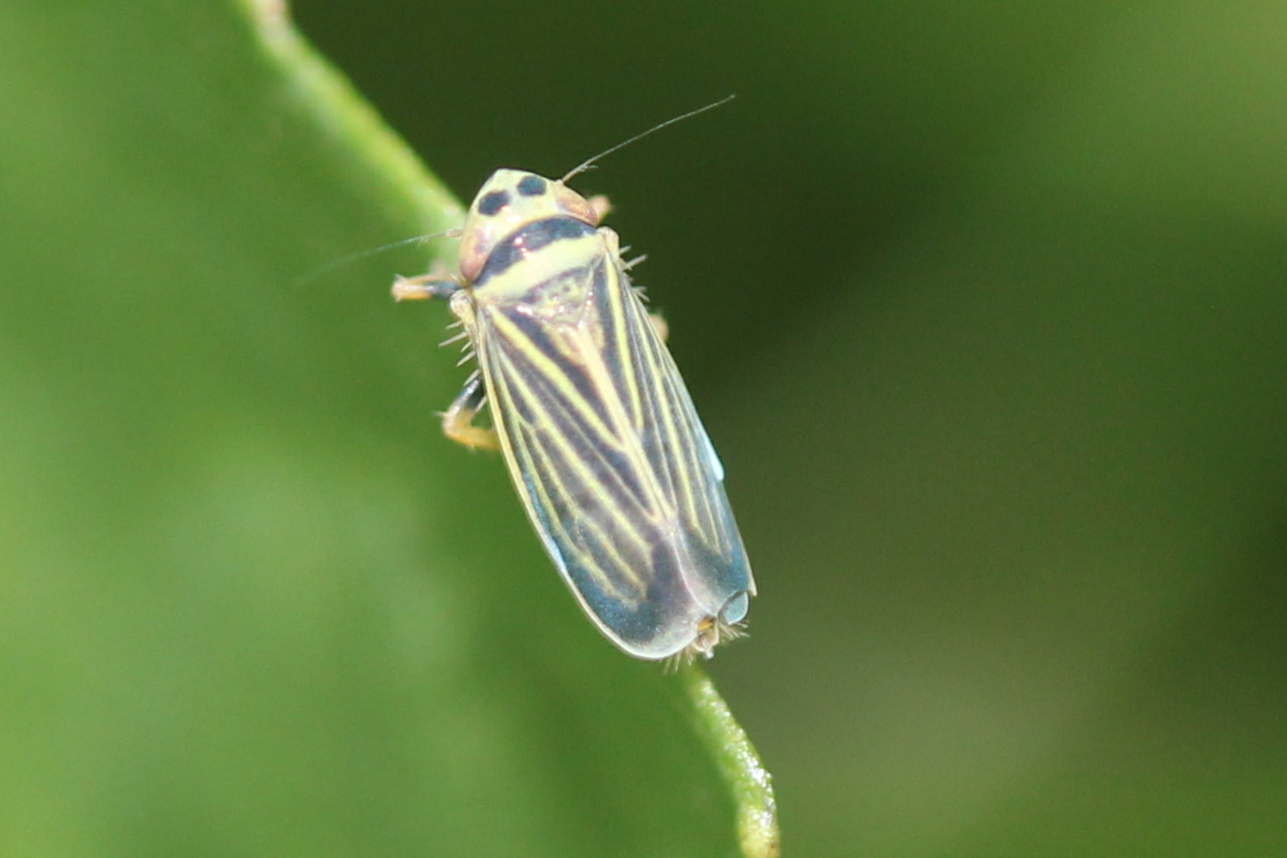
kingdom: Animalia
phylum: Arthropoda
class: Insecta
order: Hemiptera
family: Cicadellidae
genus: Amblysellus
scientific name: Amblysellus curtisii
